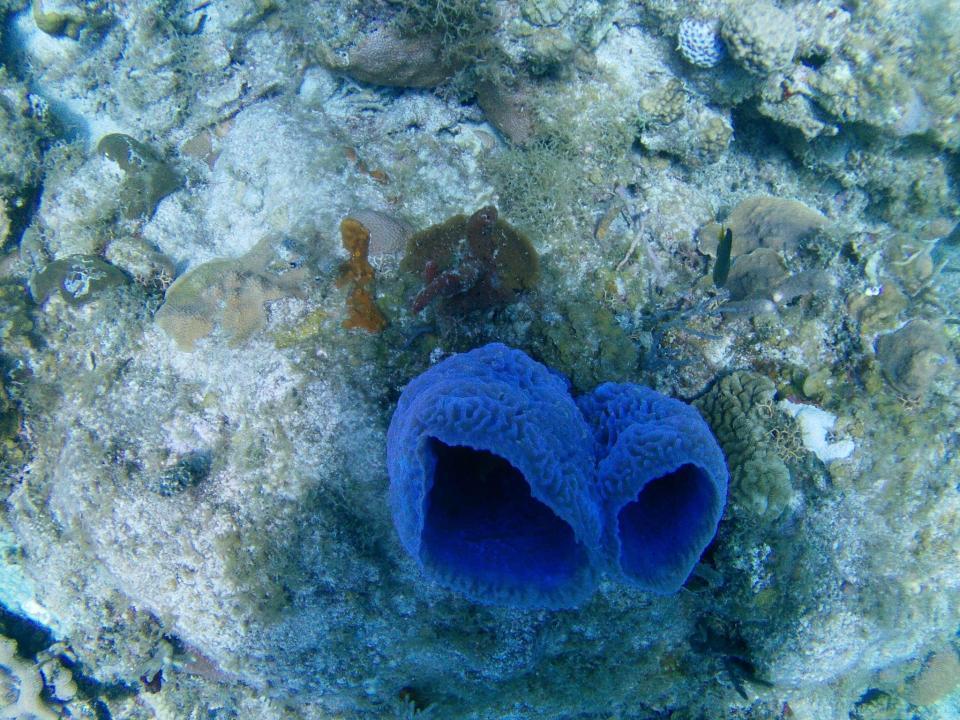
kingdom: Animalia
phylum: Porifera
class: Demospongiae
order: Haplosclerida
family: Callyspongiidae
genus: Callyspongia
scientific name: Callyspongia plicifera
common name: Azure vase sponge
